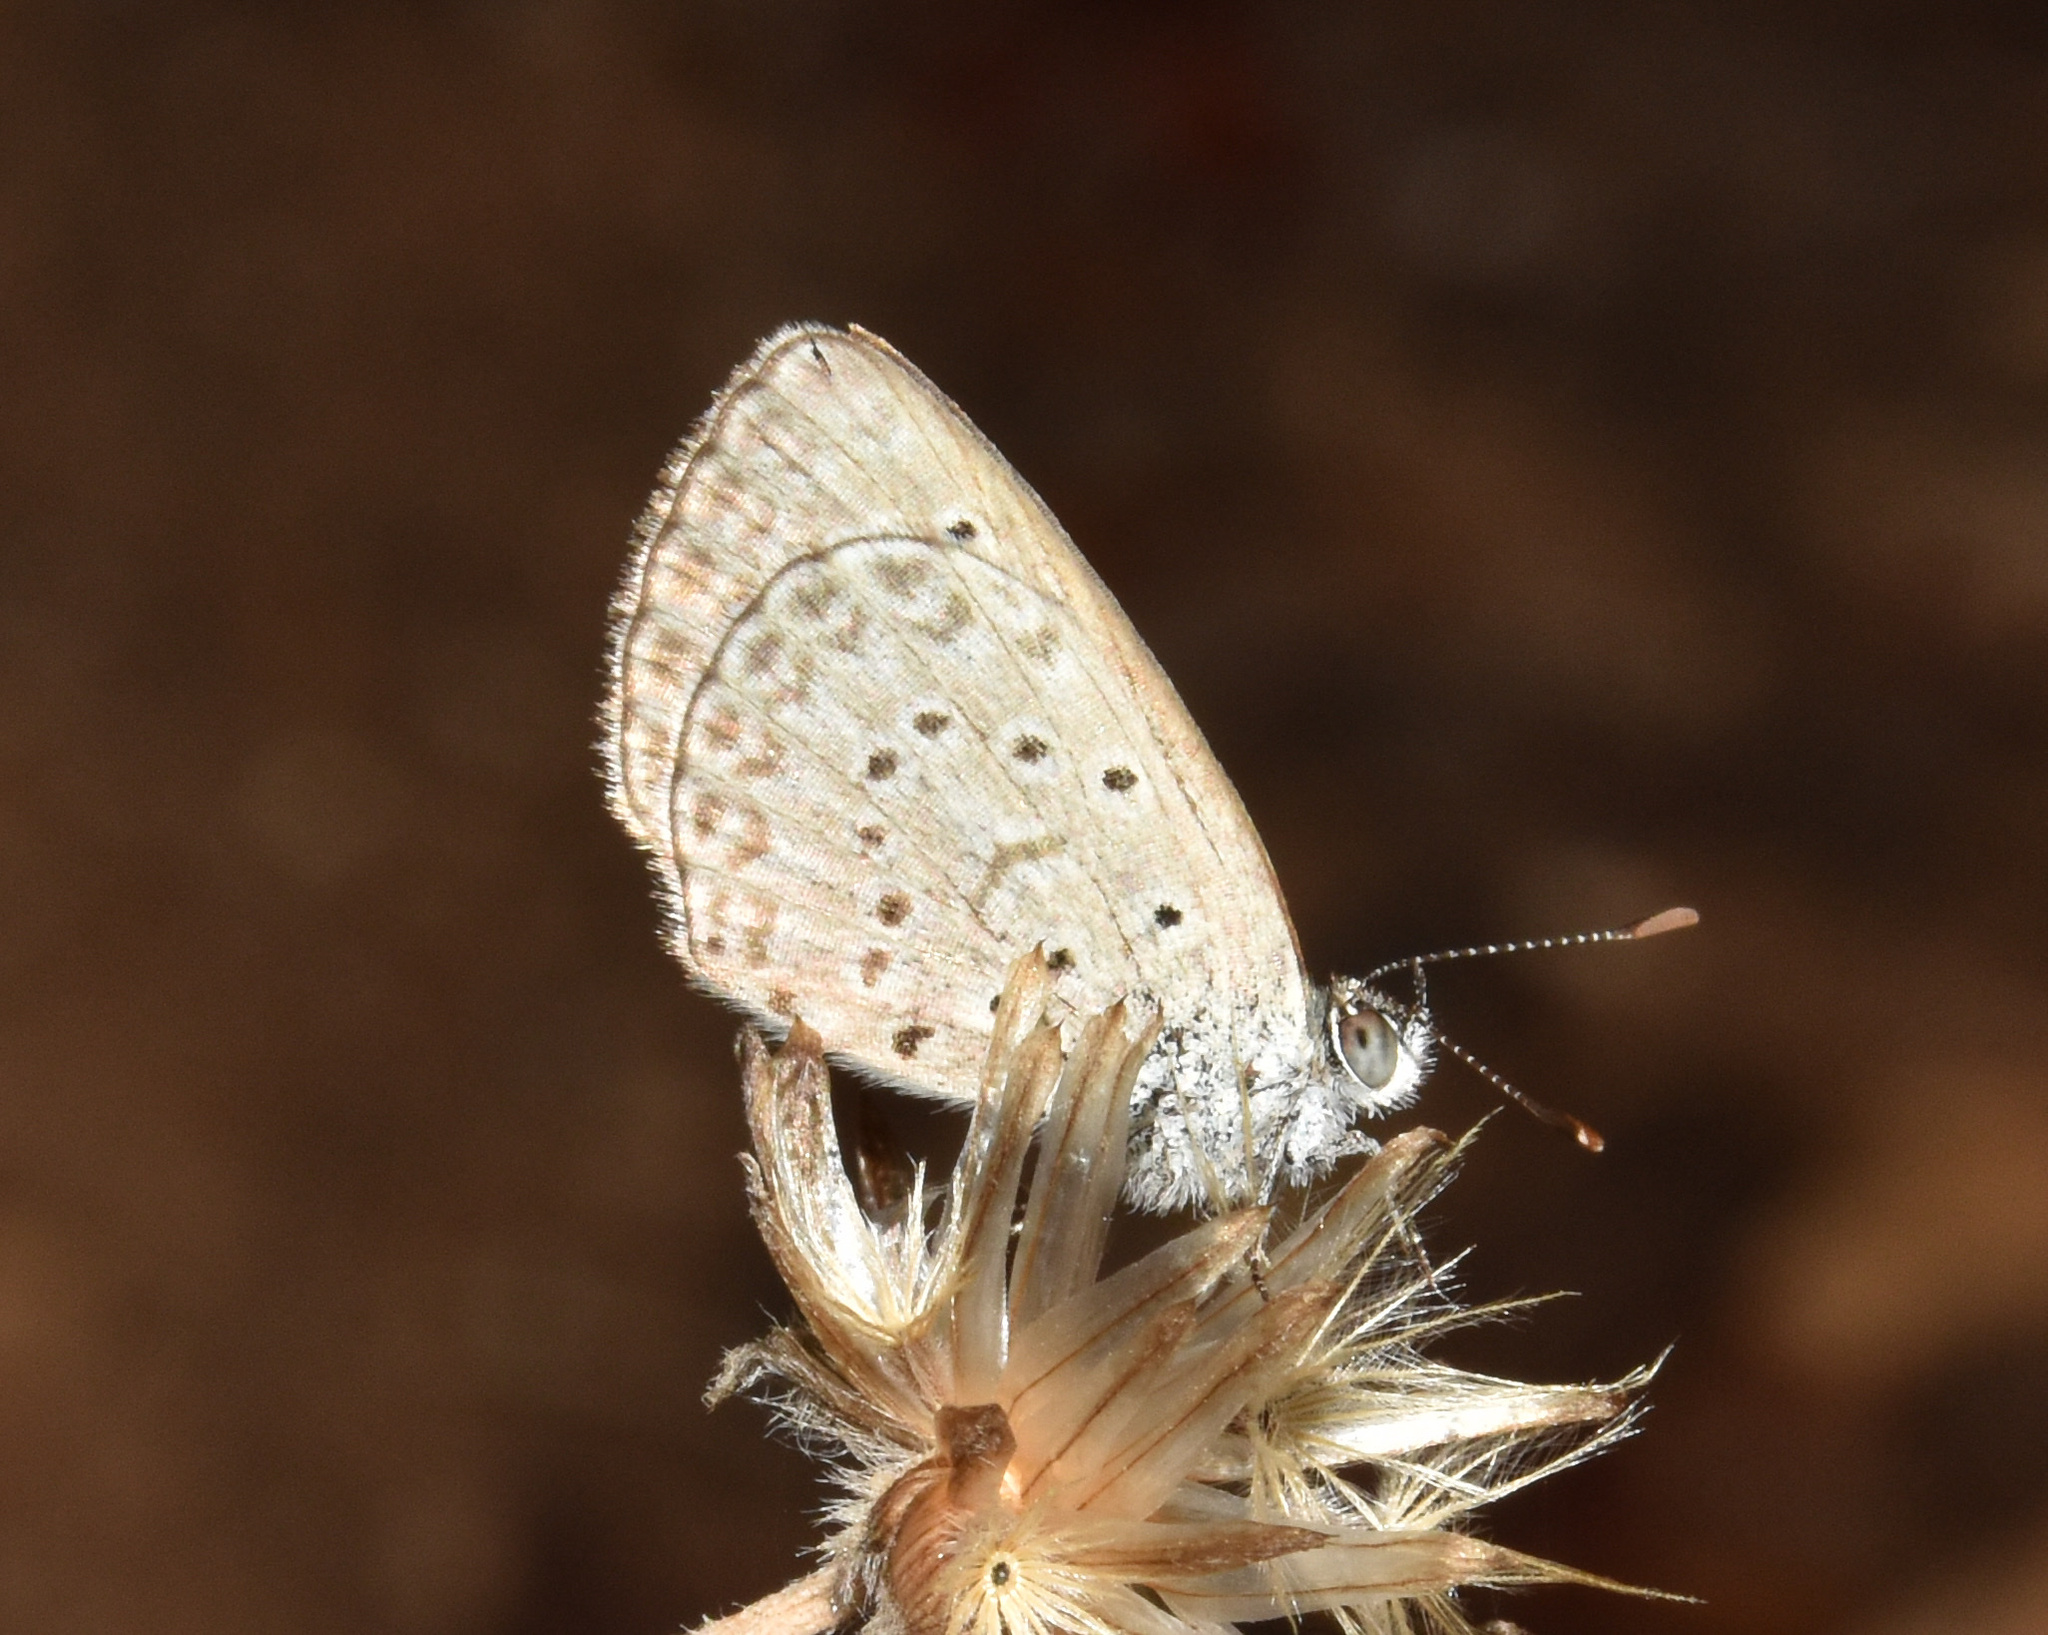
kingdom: Animalia
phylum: Arthropoda
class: Insecta
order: Lepidoptera
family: Lycaenidae
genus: Zizeeria
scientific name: Zizeeria knysna
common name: African grass blue
